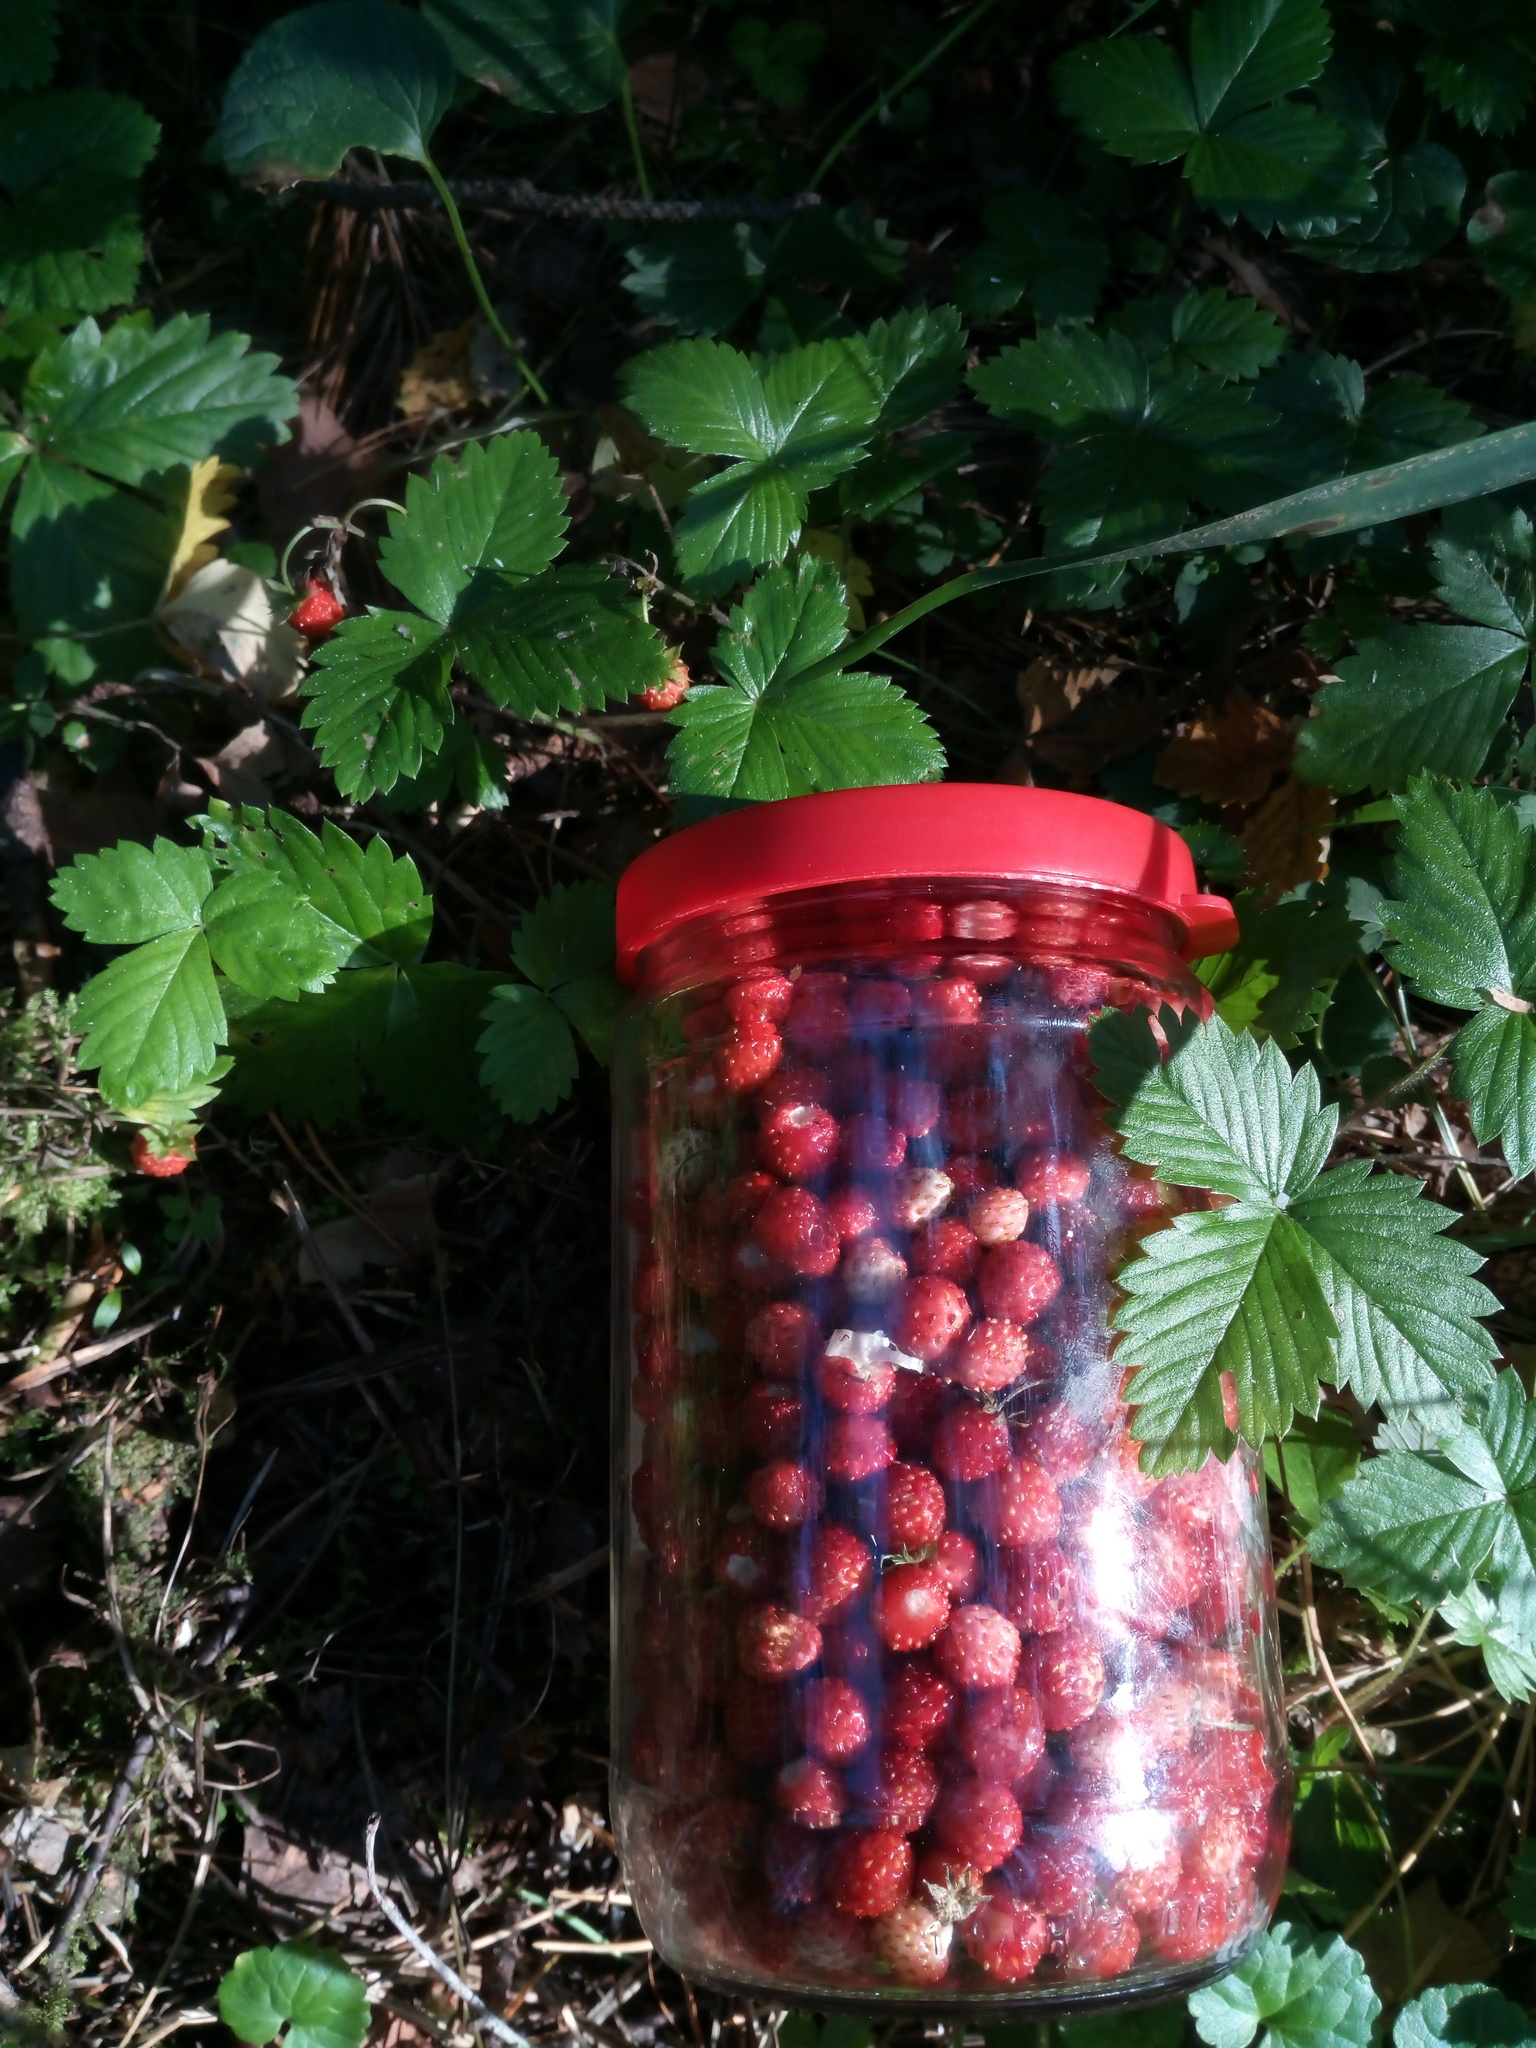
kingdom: Plantae
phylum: Tracheophyta
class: Magnoliopsida
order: Rosales
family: Rosaceae
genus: Fragaria
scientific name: Fragaria vesca
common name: Wild strawberry
